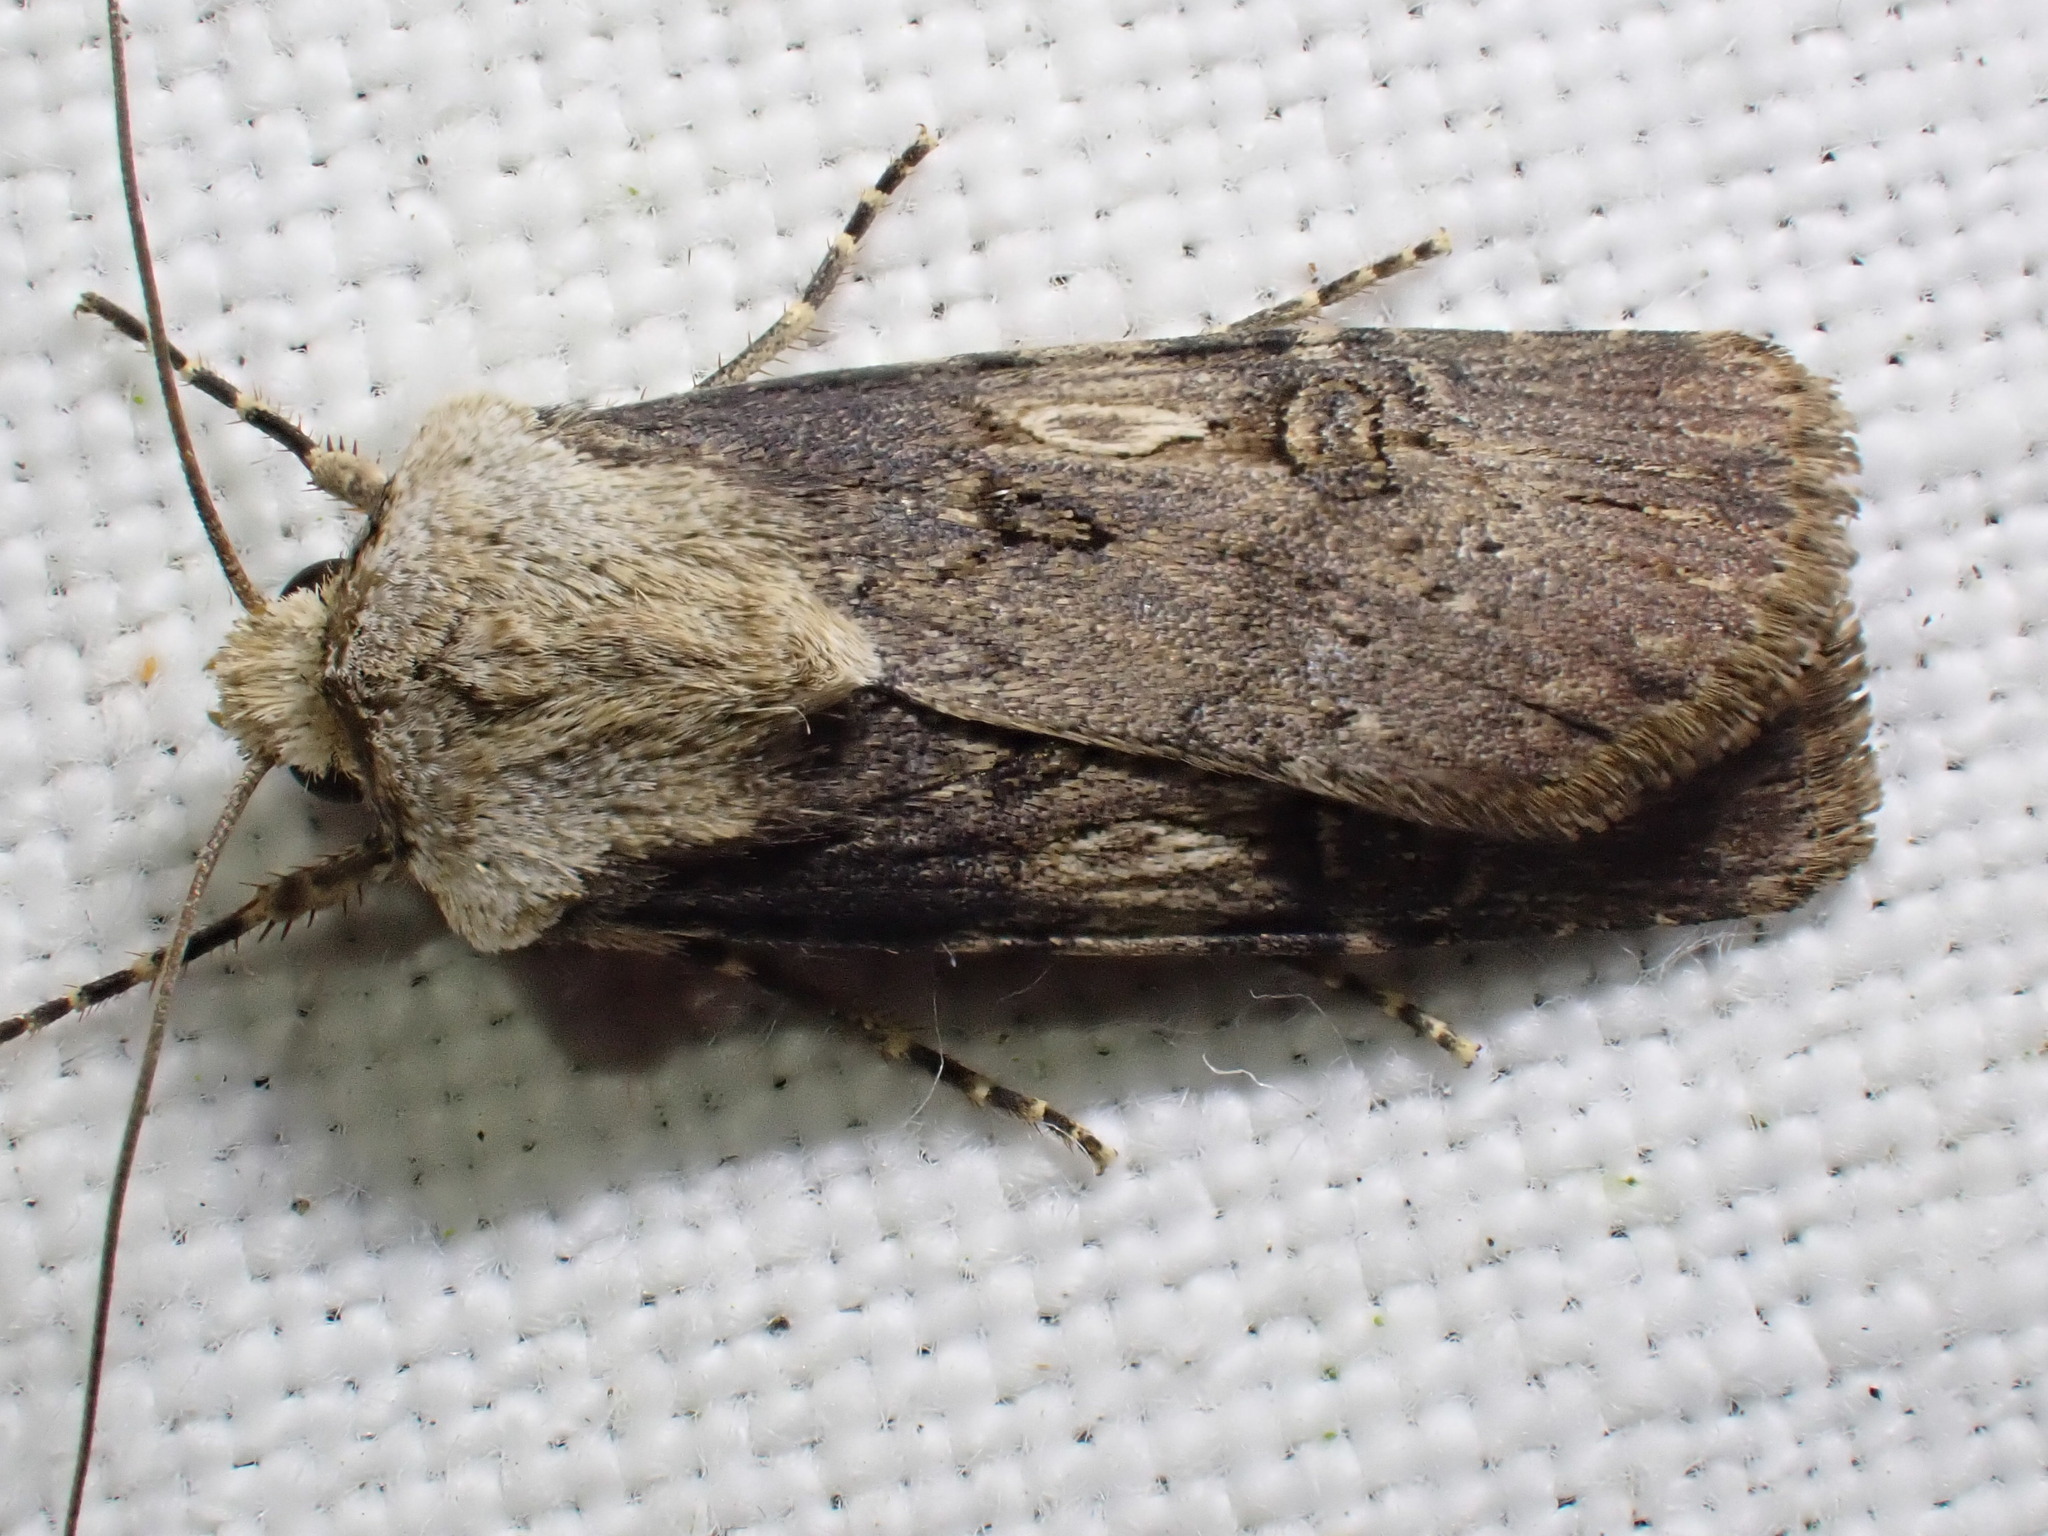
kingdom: Animalia
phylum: Arthropoda
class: Insecta
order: Lepidoptera
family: Noctuidae
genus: Agrotis
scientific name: Agrotis puta
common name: Shuttle-shaped dart
